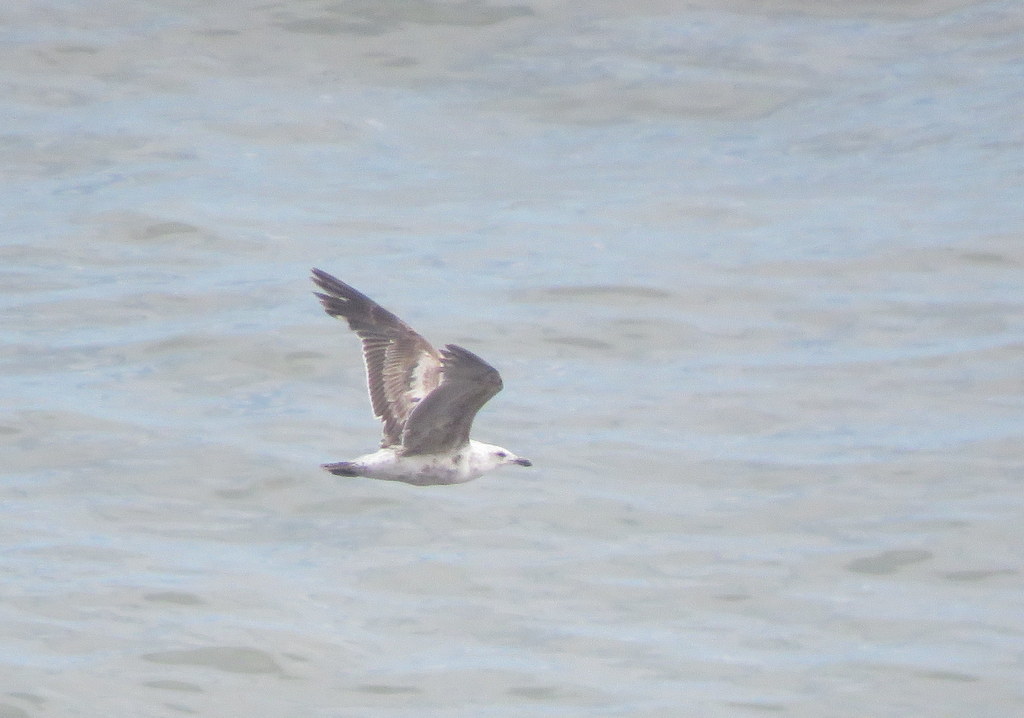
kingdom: Animalia
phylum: Chordata
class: Aves
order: Charadriiformes
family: Laridae
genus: Larus
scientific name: Larus dominicanus
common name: Kelp gull
